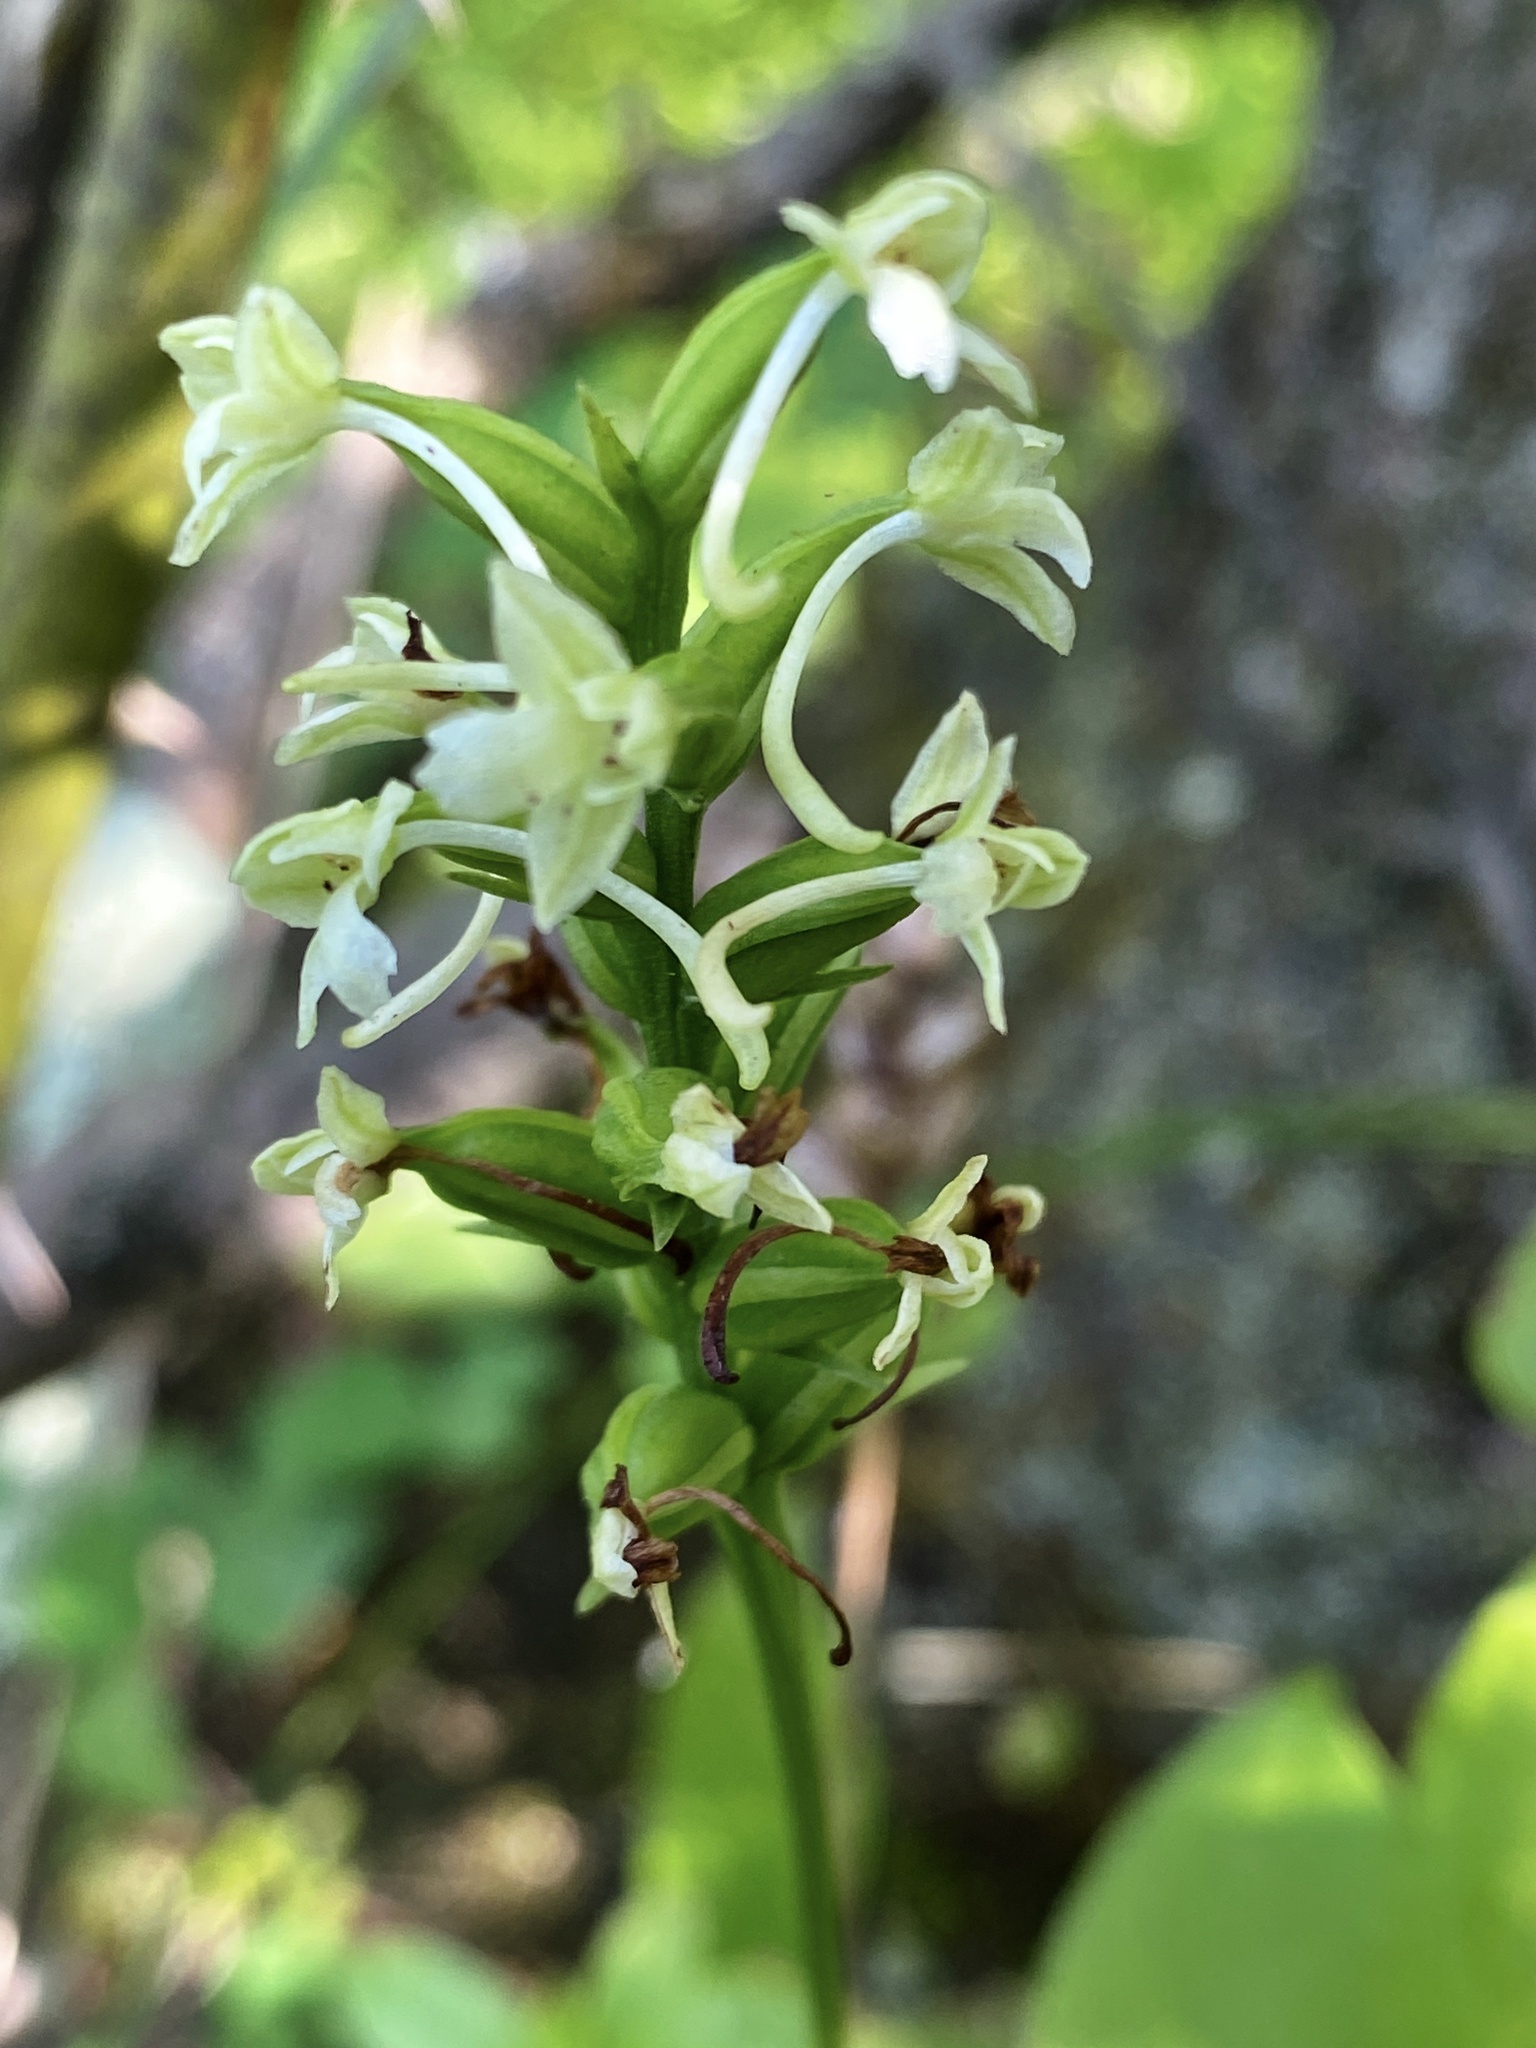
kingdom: Plantae
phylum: Tracheophyta
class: Liliopsida
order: Asparagales
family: Orchidaceae
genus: Platanthera
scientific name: Platanthera clavellata
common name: Club-spur orchid
